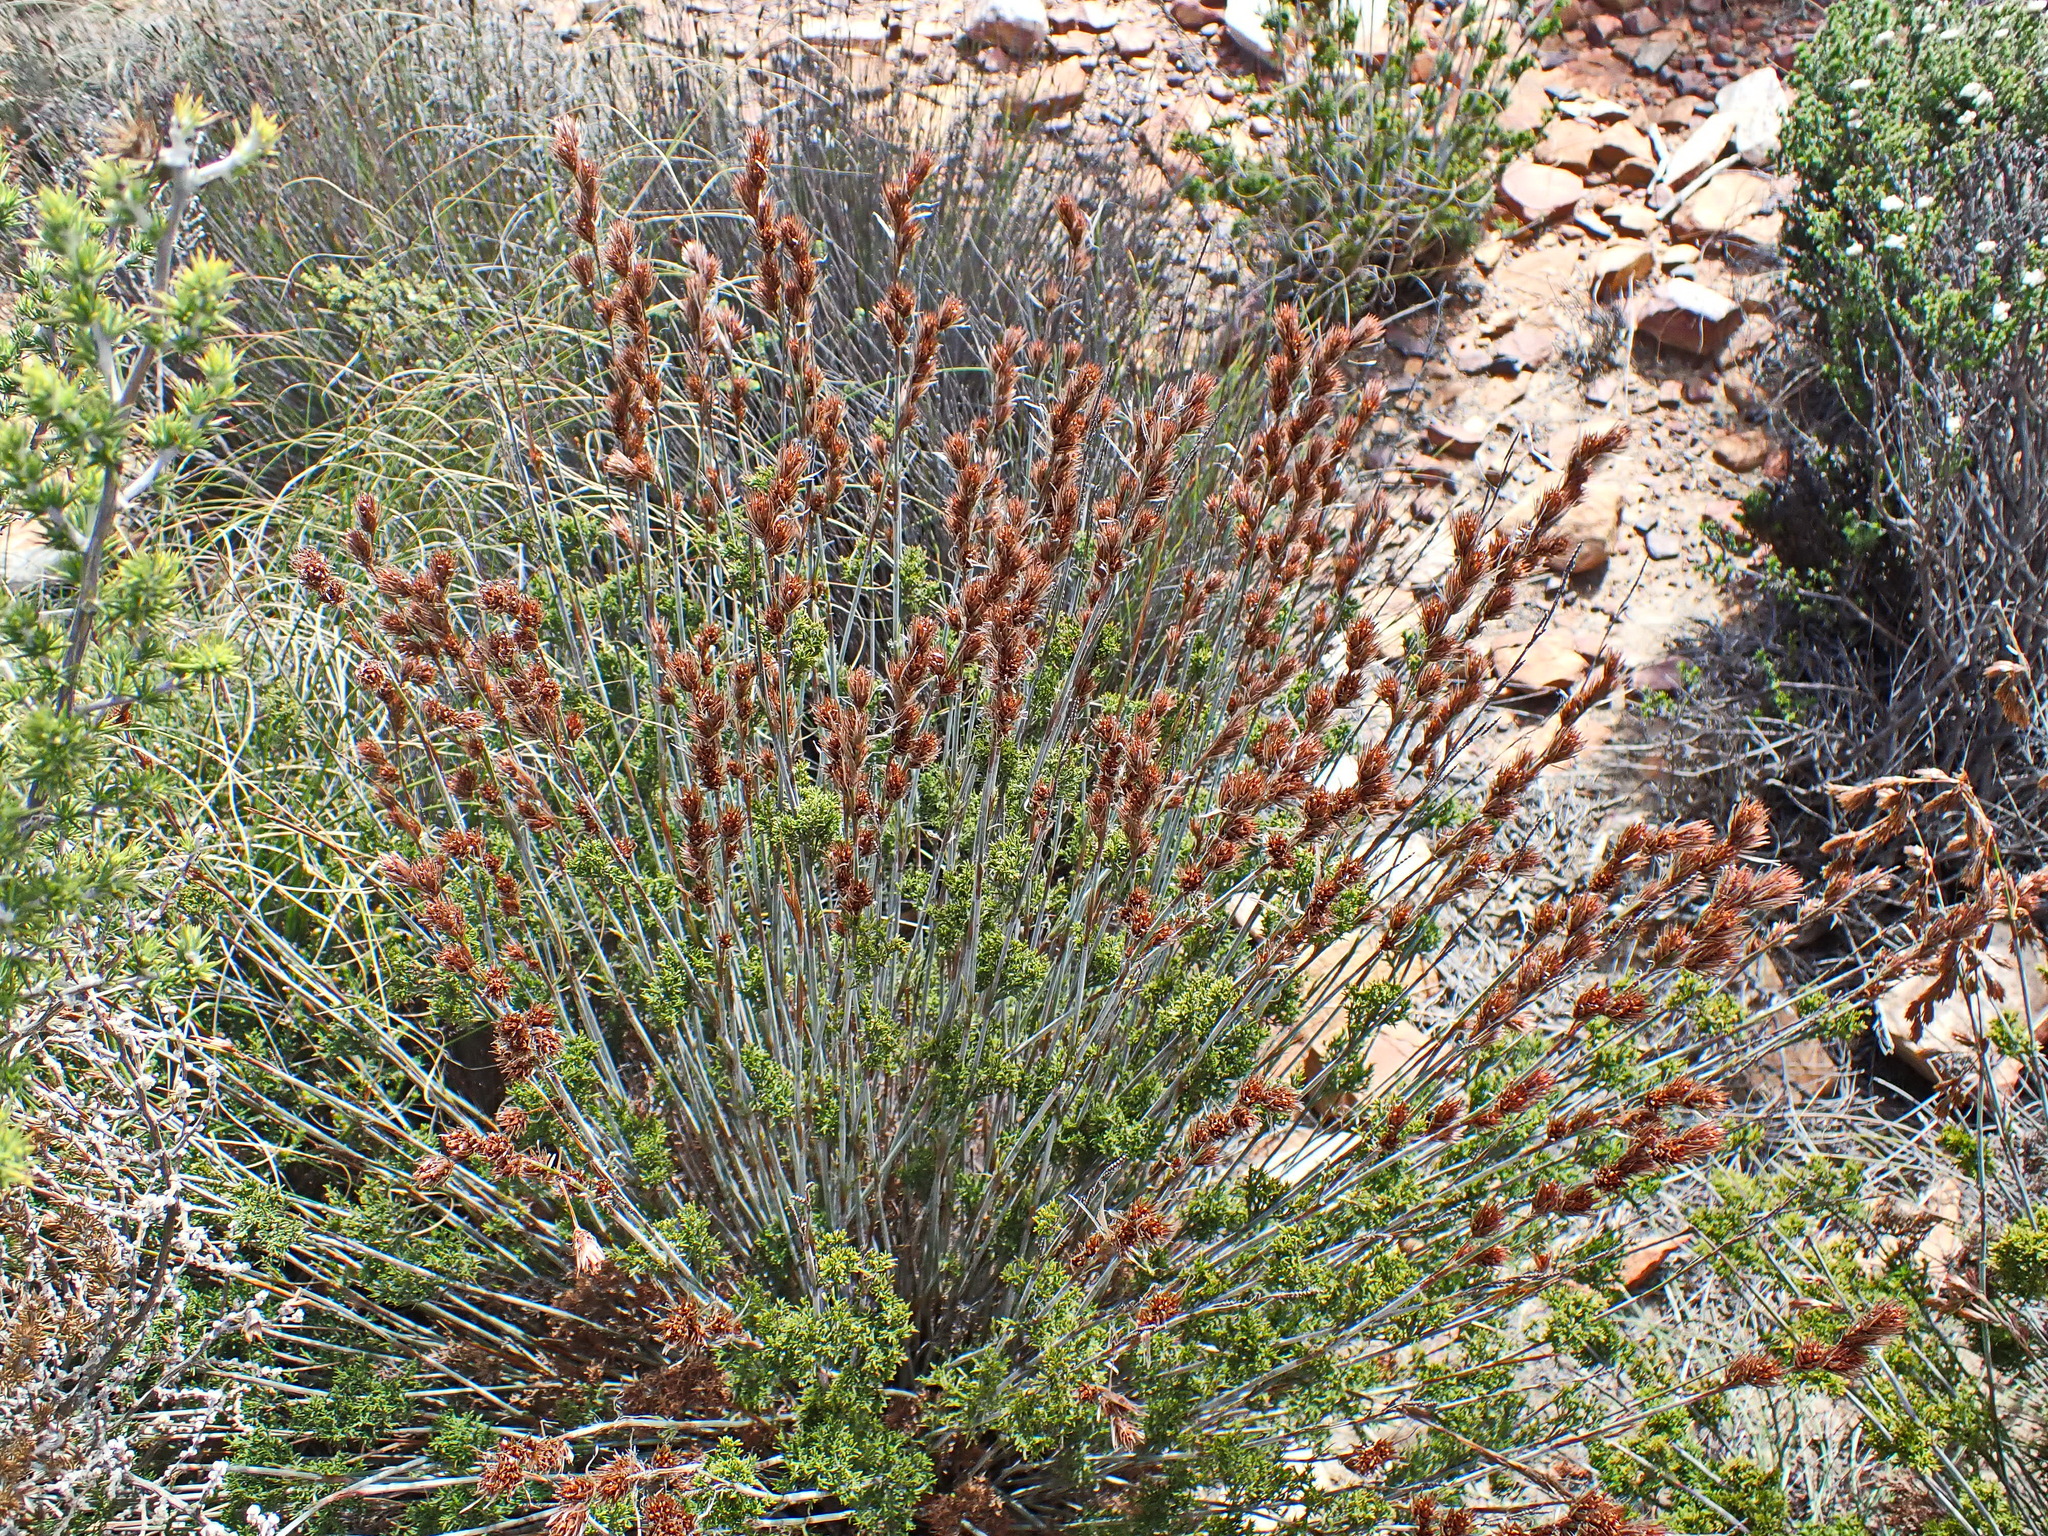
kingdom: Plantae
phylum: Tracheophyta
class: Liliopsida
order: Poales
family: Restionaceae
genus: Thamnochortus
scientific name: Thamnochortus rigidus
